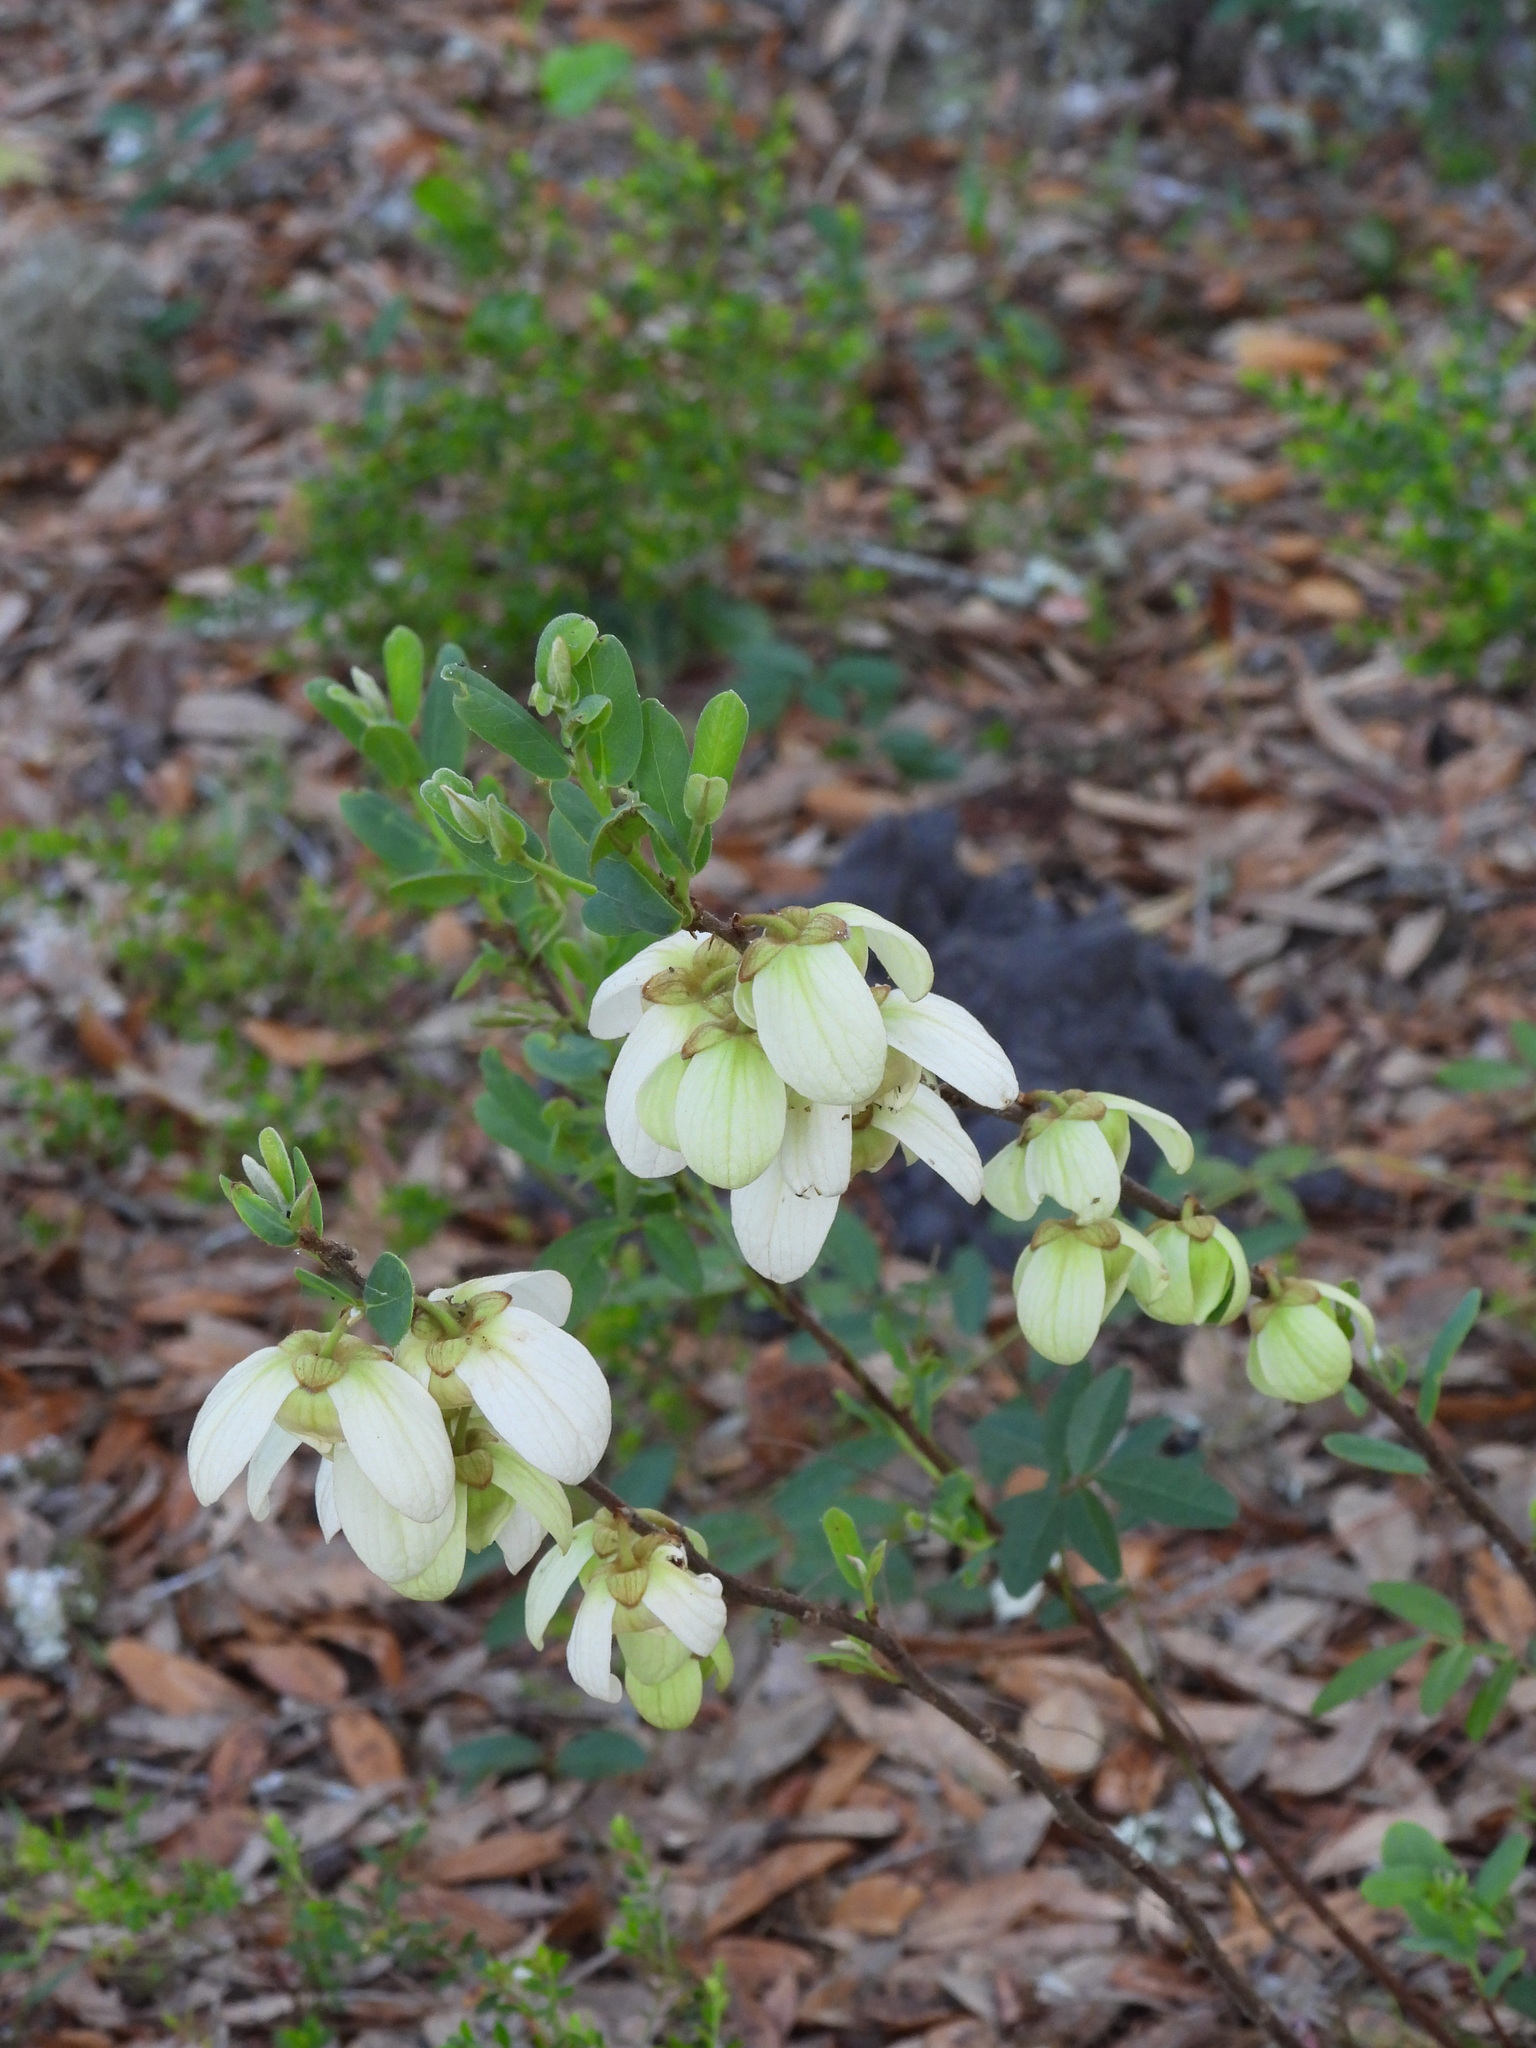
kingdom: Plantae
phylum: Tracheophyta
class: Magnoliopsida
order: Magnoliales
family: Annonaceae
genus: Asimina
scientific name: Asimina reticulata
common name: Flag pawpaw
